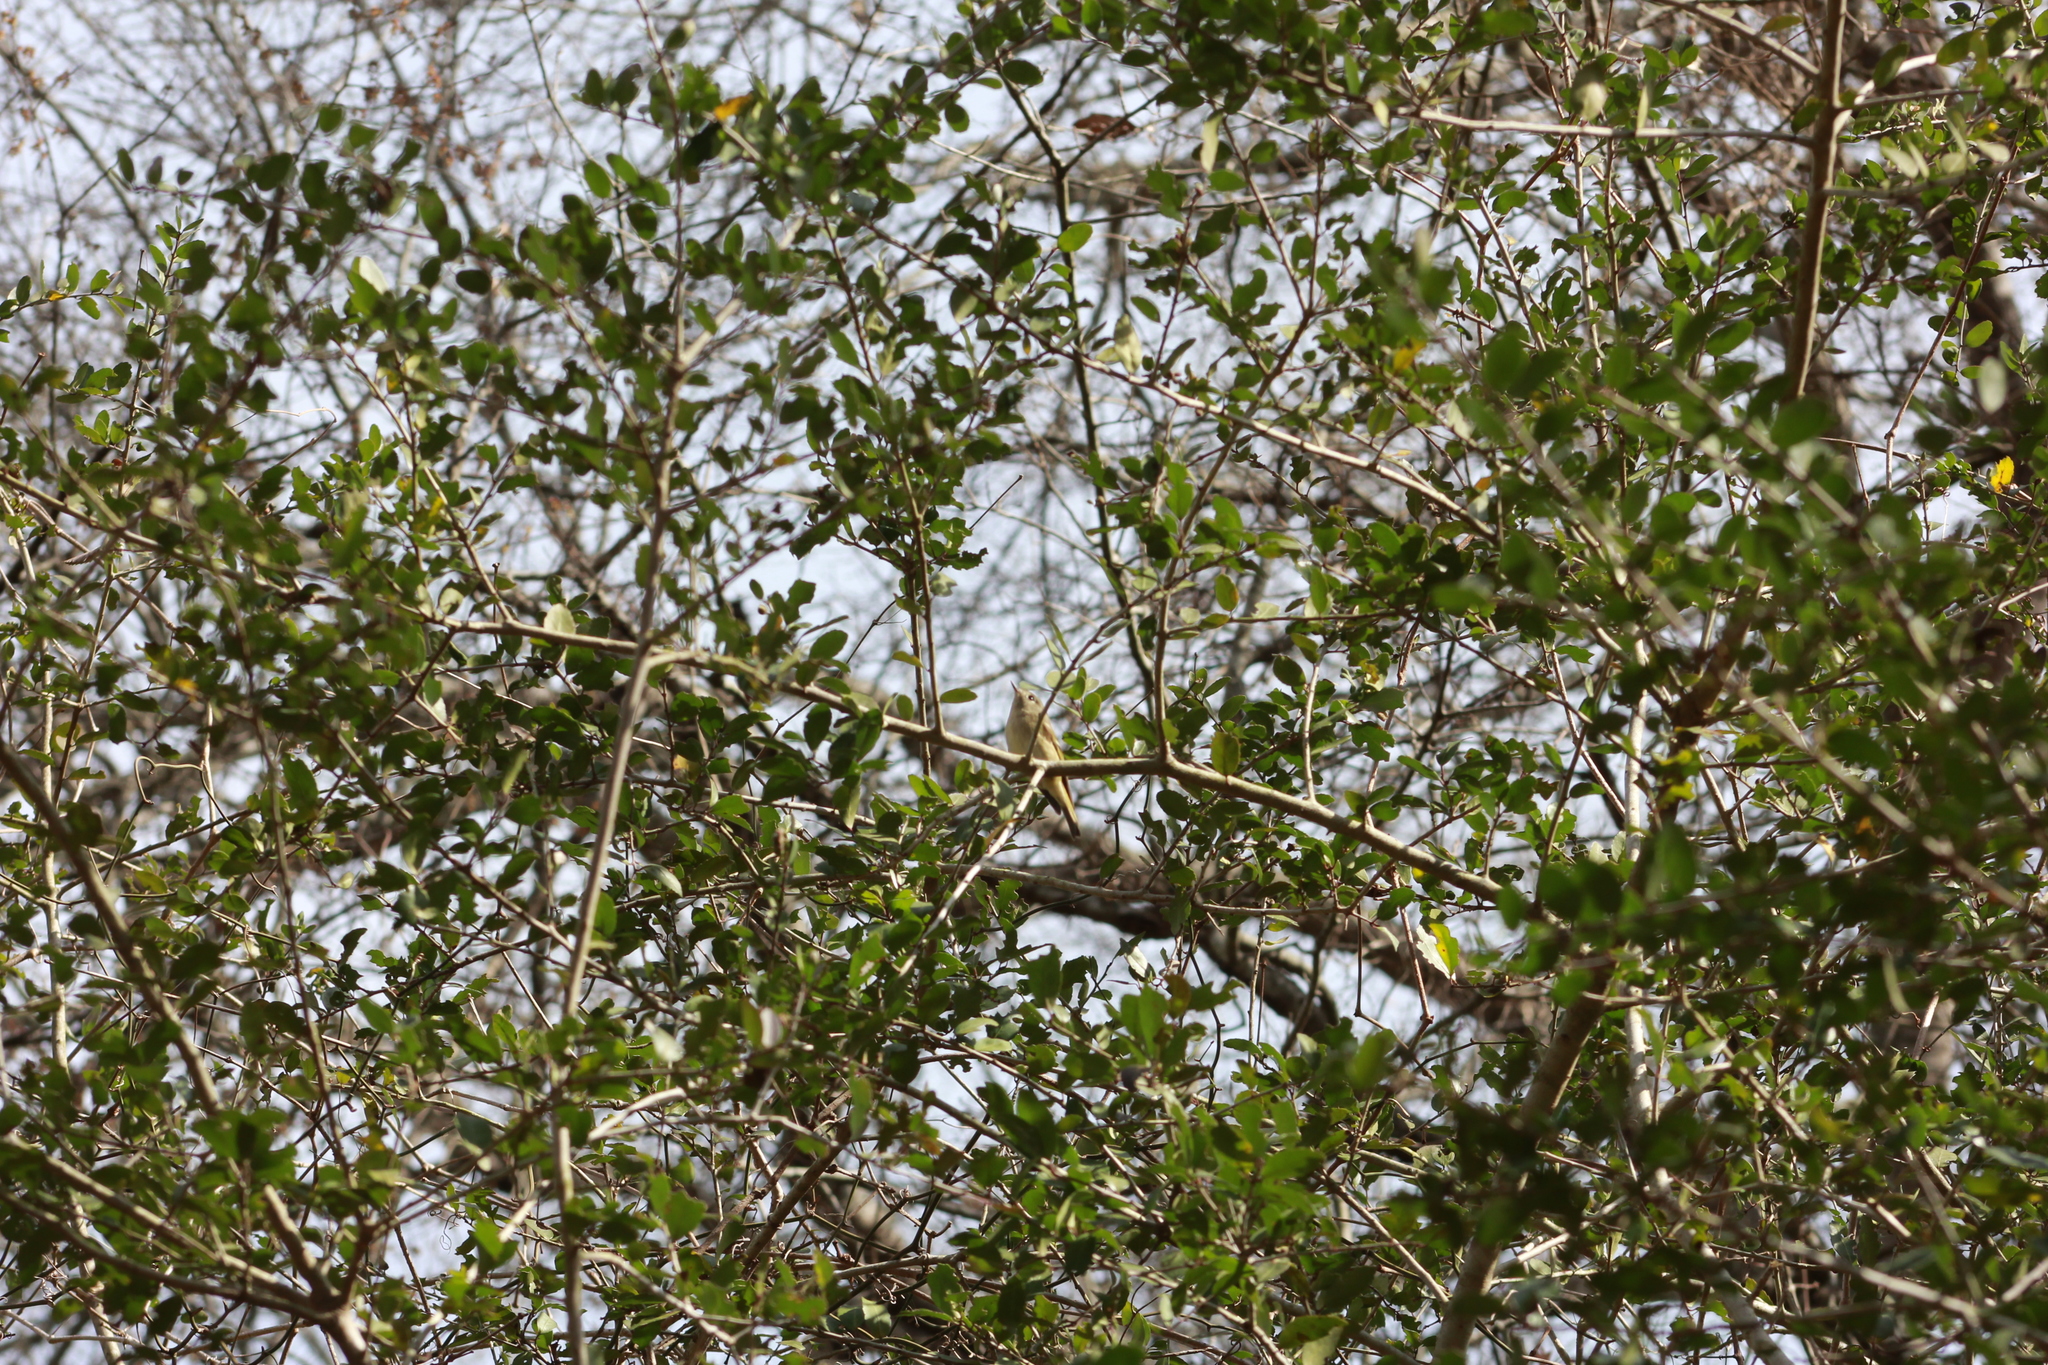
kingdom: Animalia
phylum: Chordata
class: Aves
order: Passeriformes
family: Regulidae
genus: Regulus
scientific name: Regulus calendula
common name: Ruby-crowned kinglet
